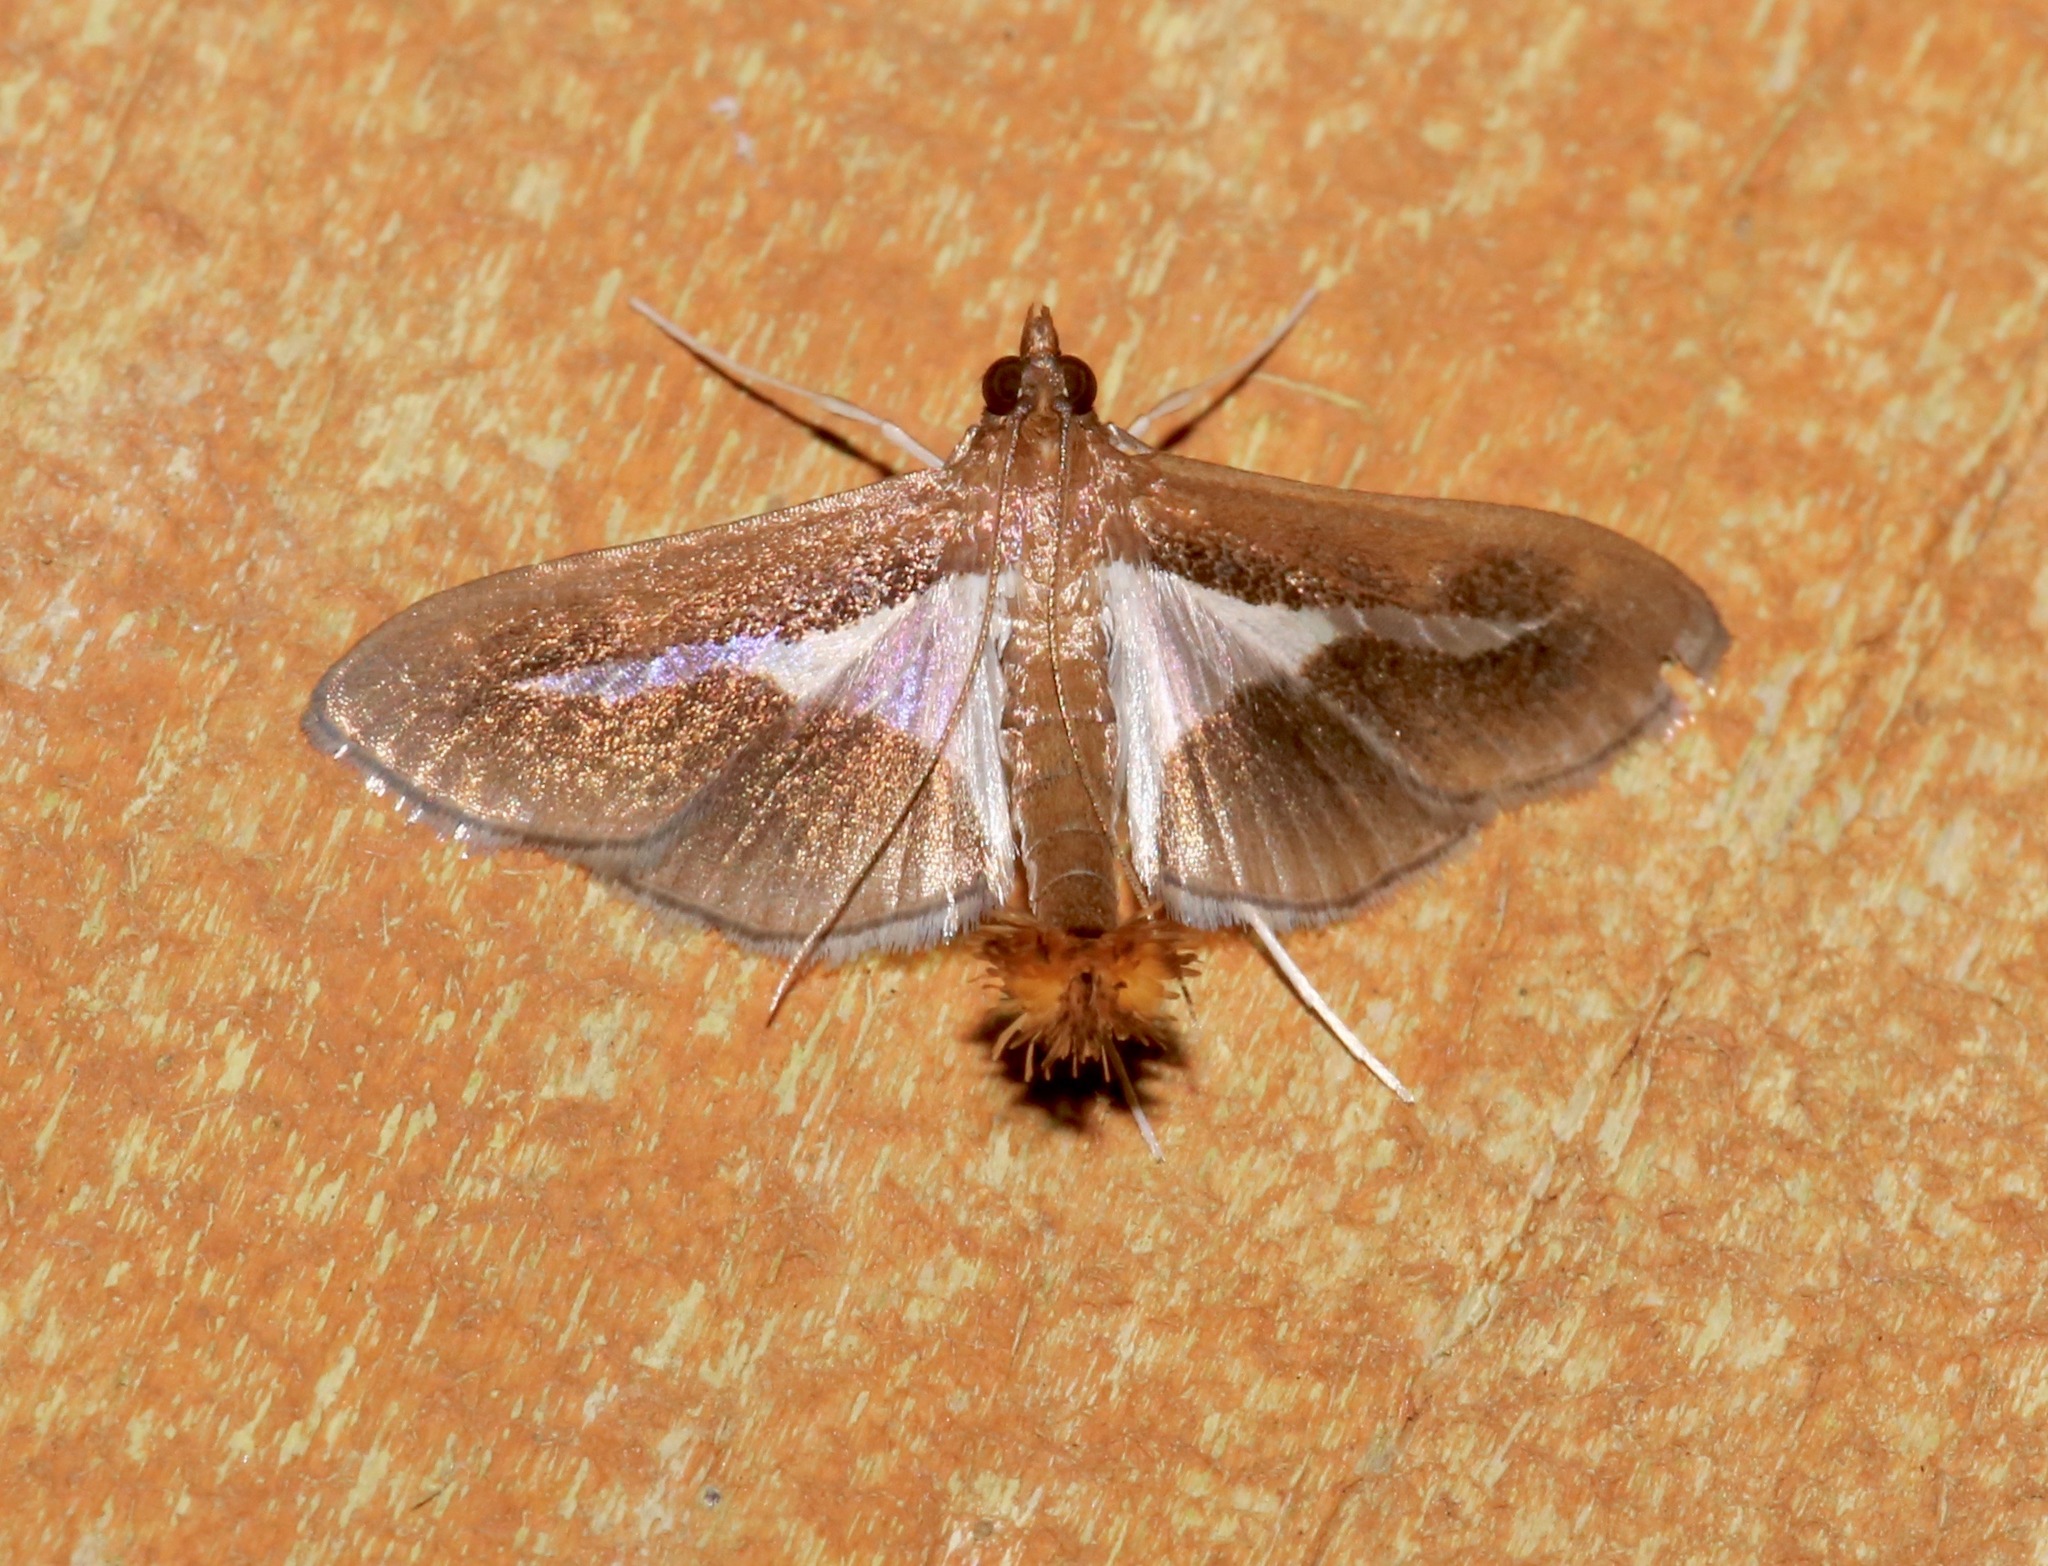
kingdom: Animalia
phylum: Arthropoda
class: Insecta
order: Lepidoptera
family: Crambidae
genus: Diaphania
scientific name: Diaphania modialis
